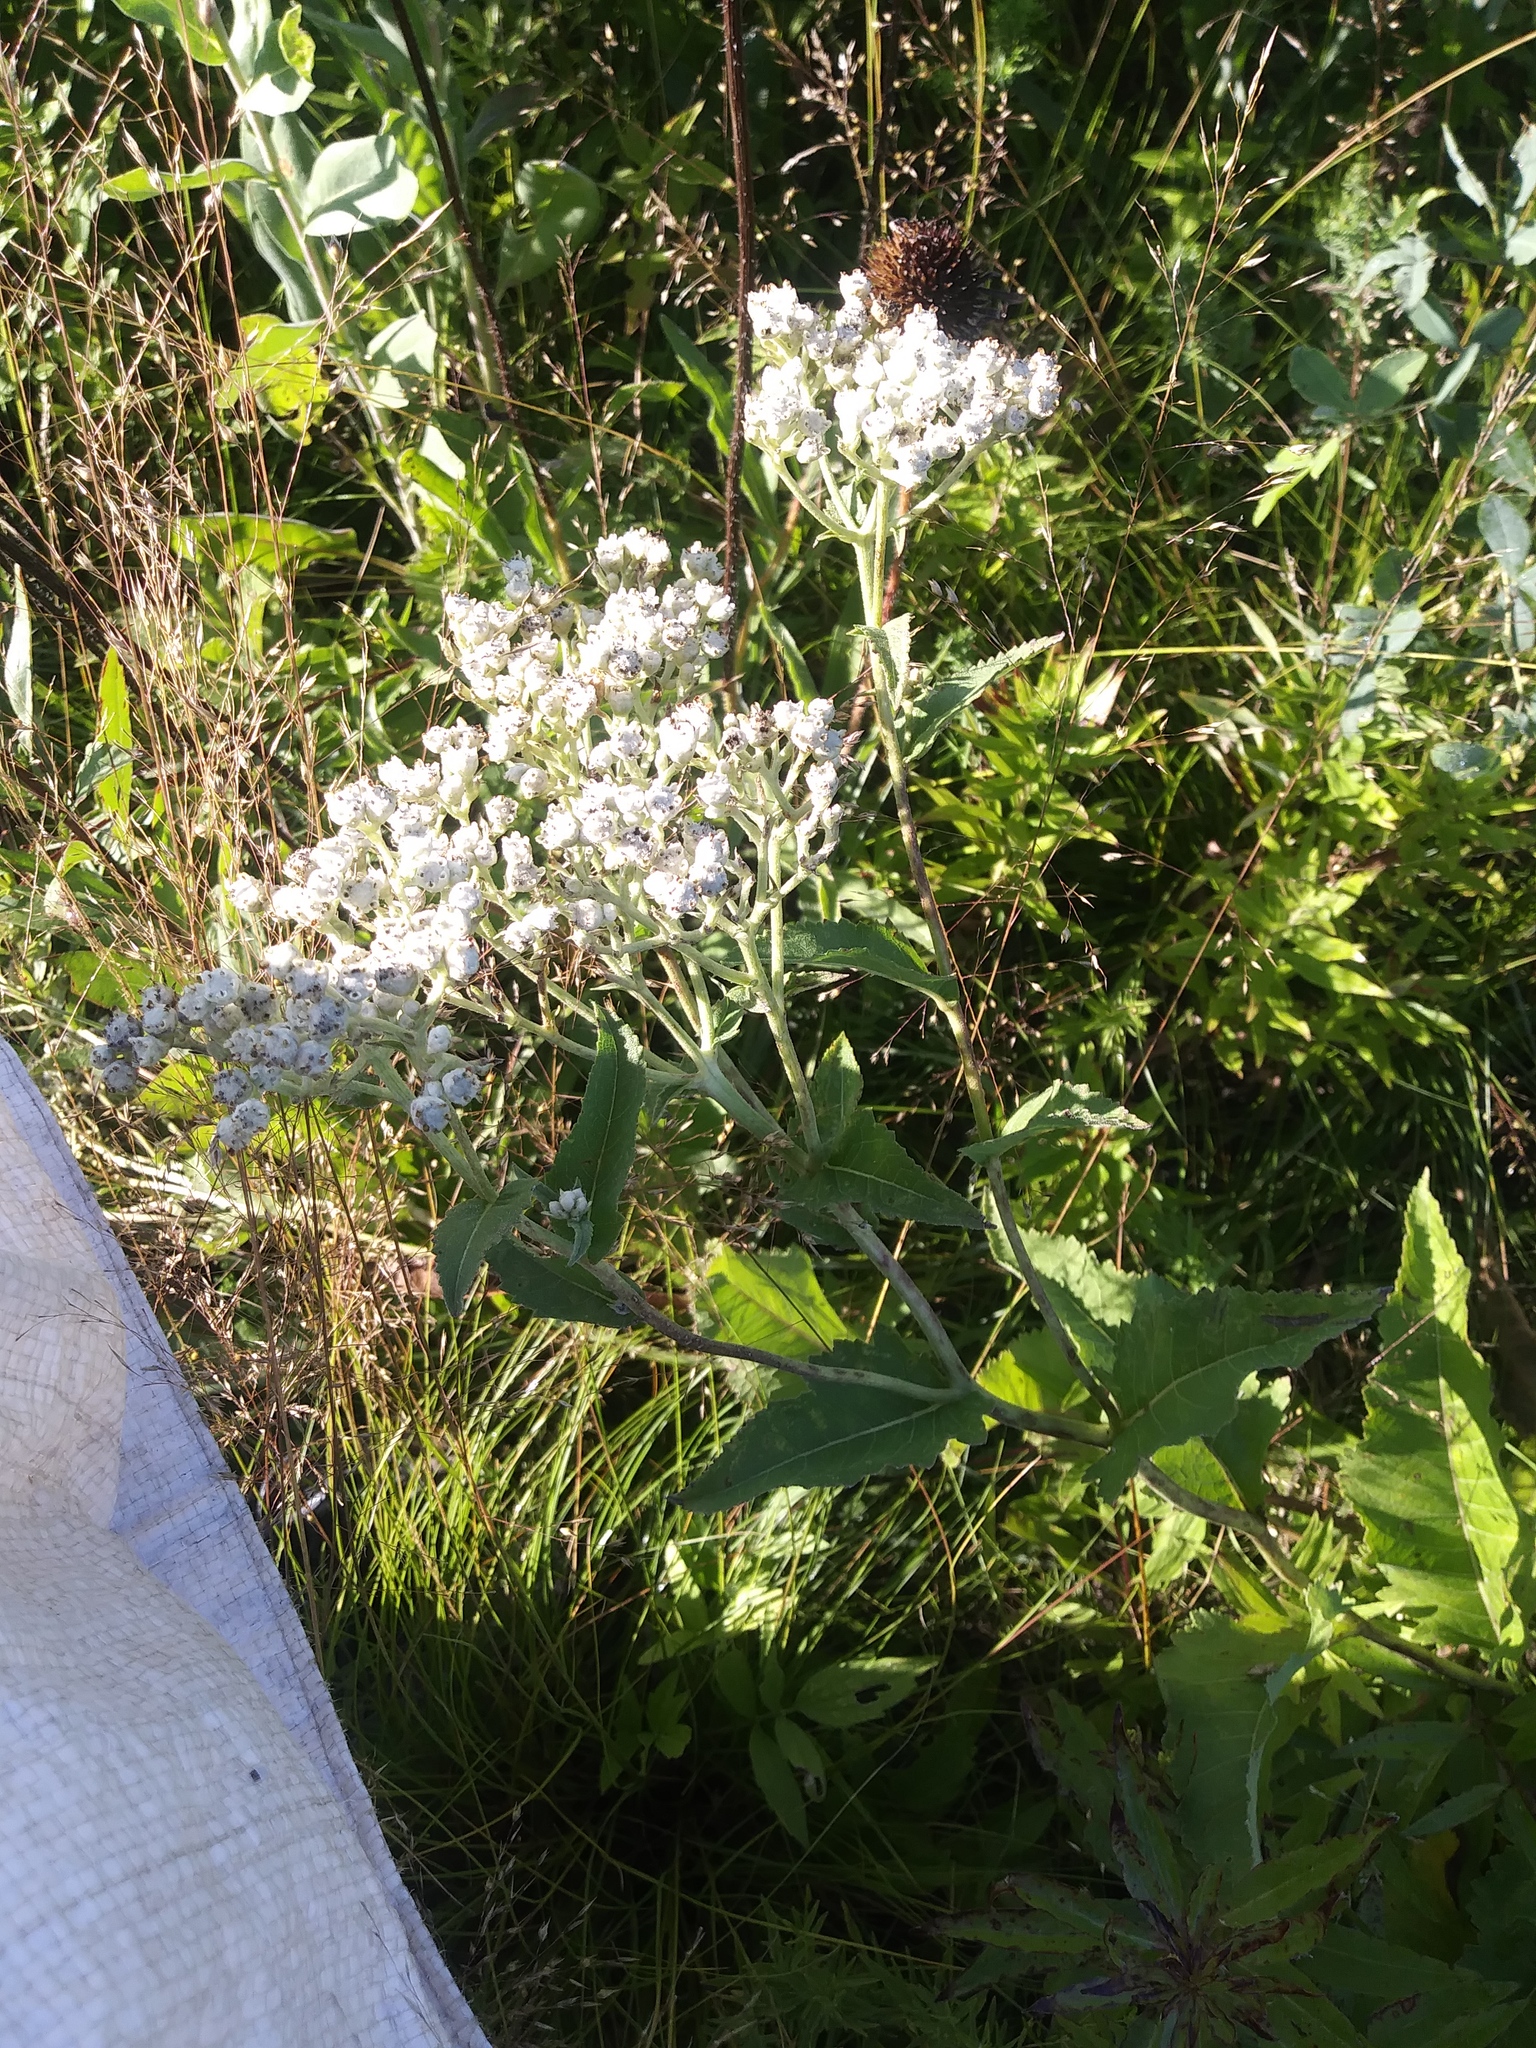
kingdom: Plantae
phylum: Tracheophyta
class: Magnoliopsida
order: Asterales
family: Asteraceae
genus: Parthenium
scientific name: Parthenium integrifolium
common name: American feverfew
